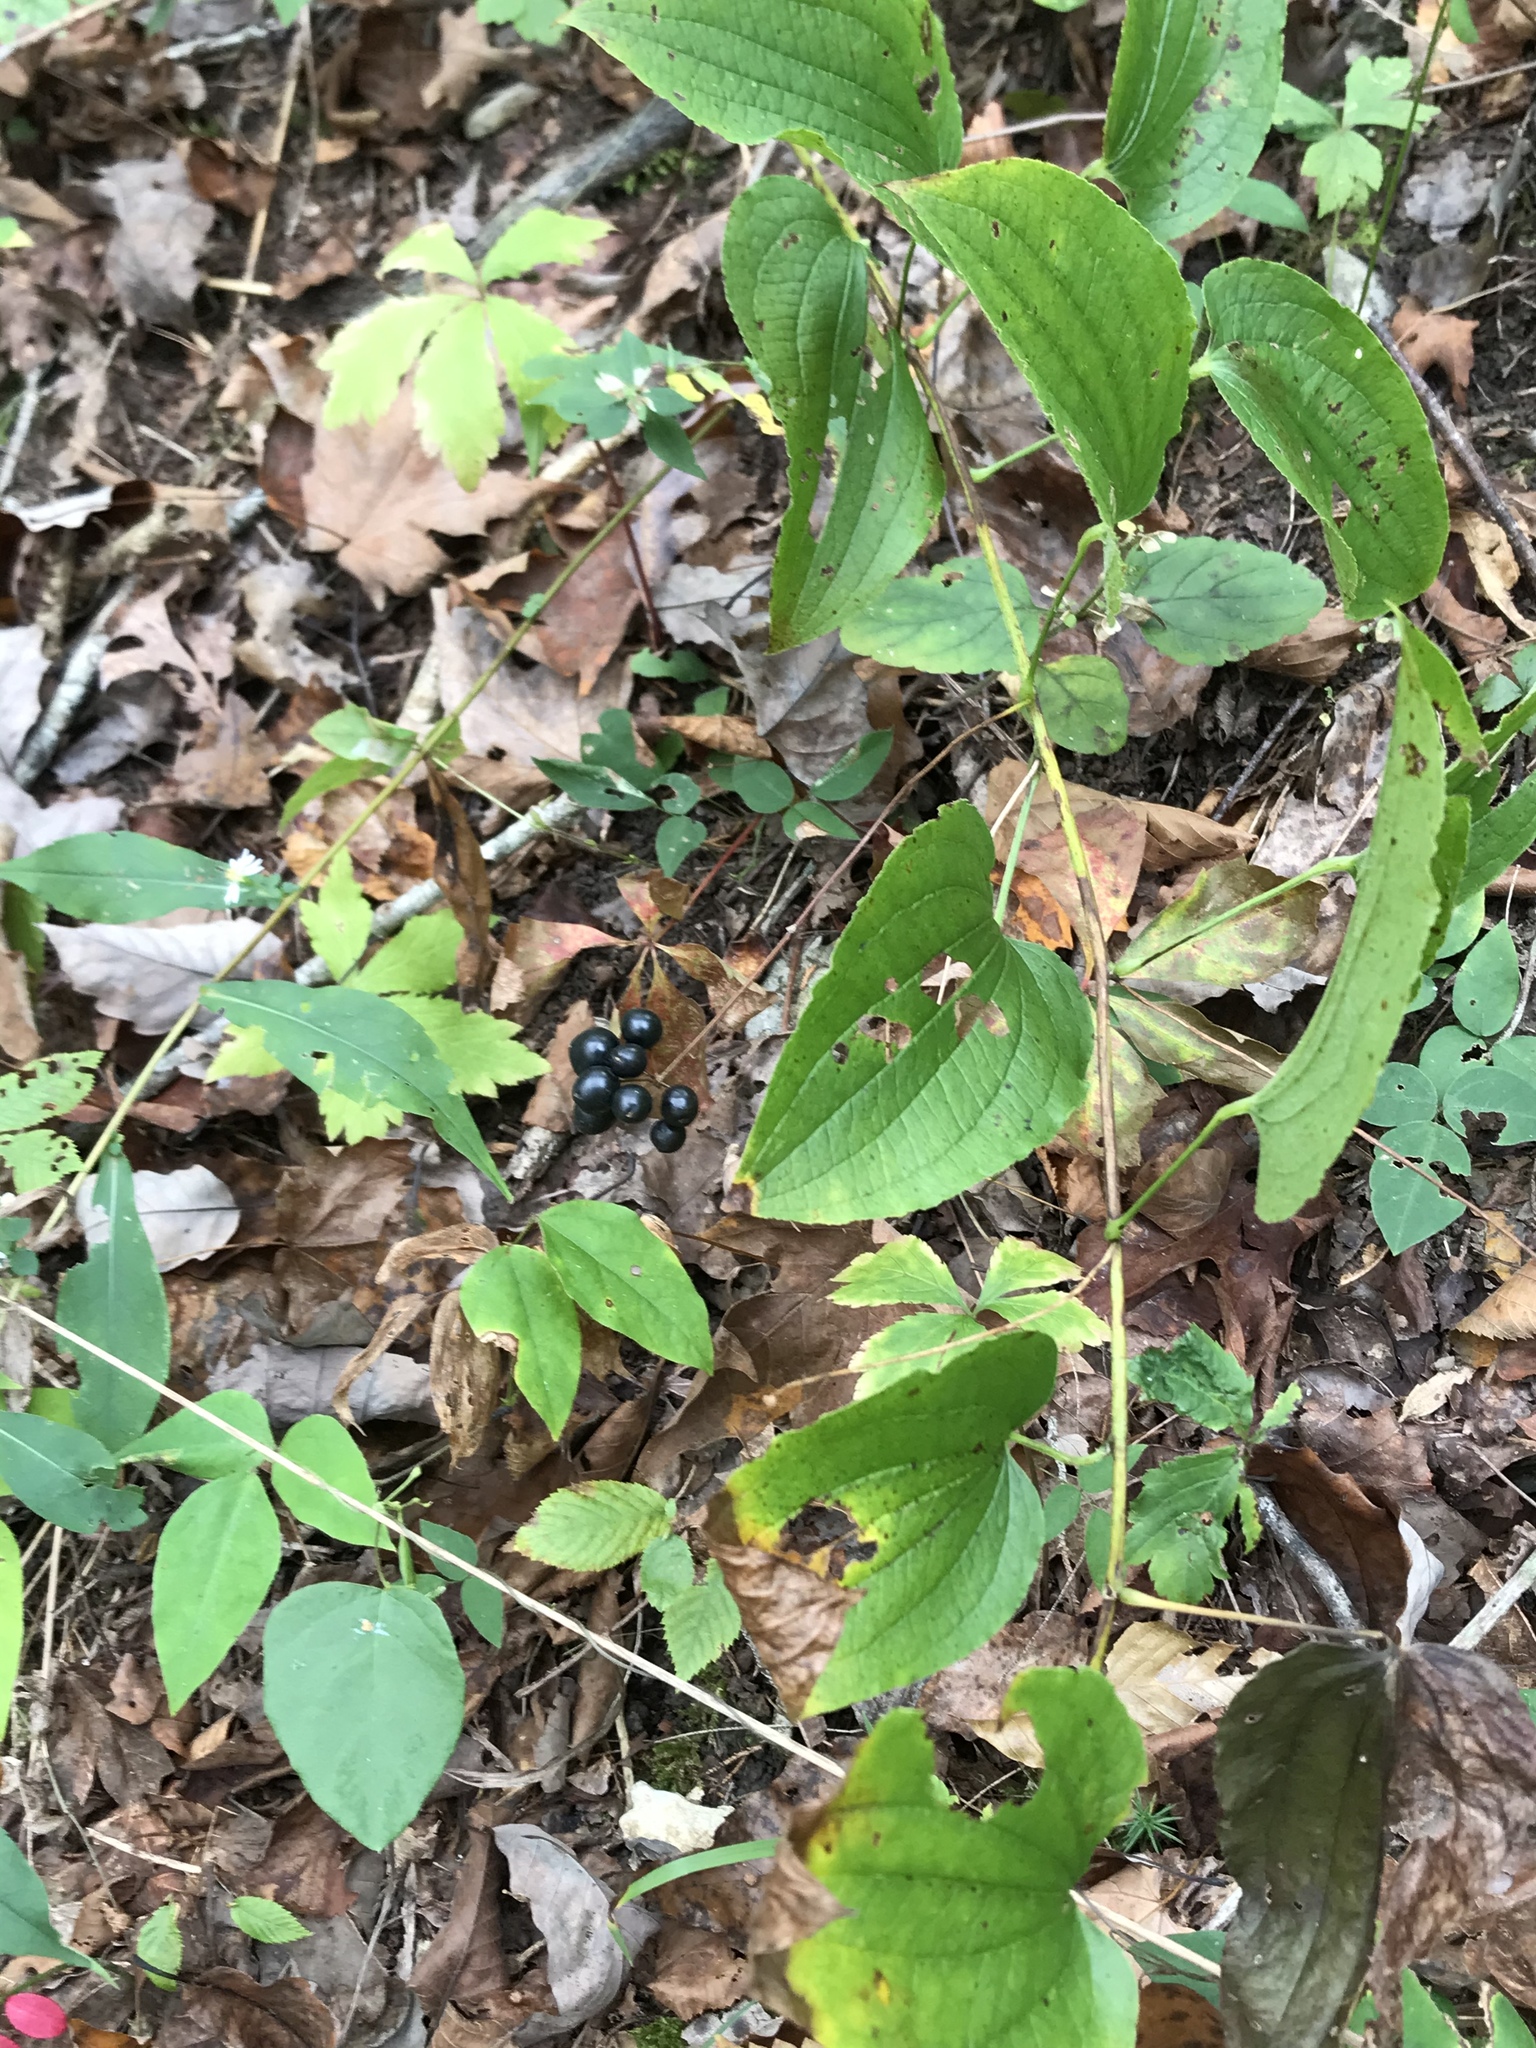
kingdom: Plantae
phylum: Tracheophyta
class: Liliopsida
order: Liliales
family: Smilacaceae
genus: Smilax
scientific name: Smilax herbacea
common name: Jacob's-ladder
